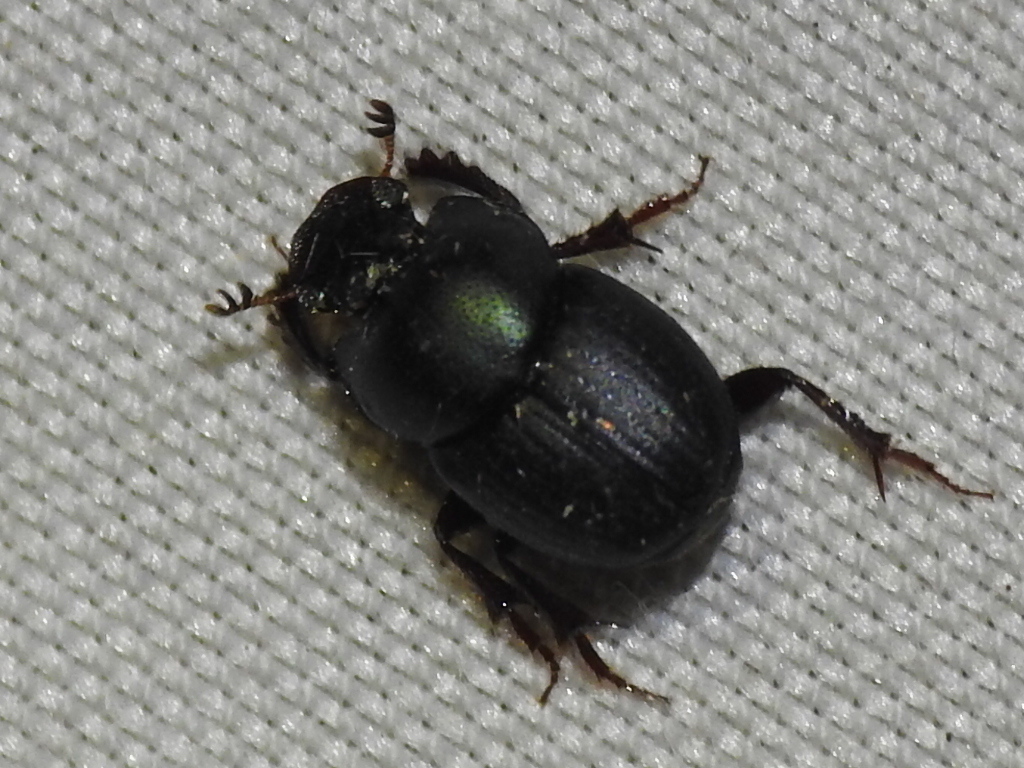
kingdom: Animalia
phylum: Arthropoda
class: Insecta
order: Coleoptera
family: Scarabaeidae
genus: Onthophagus
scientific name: Onthophagus velutinus
